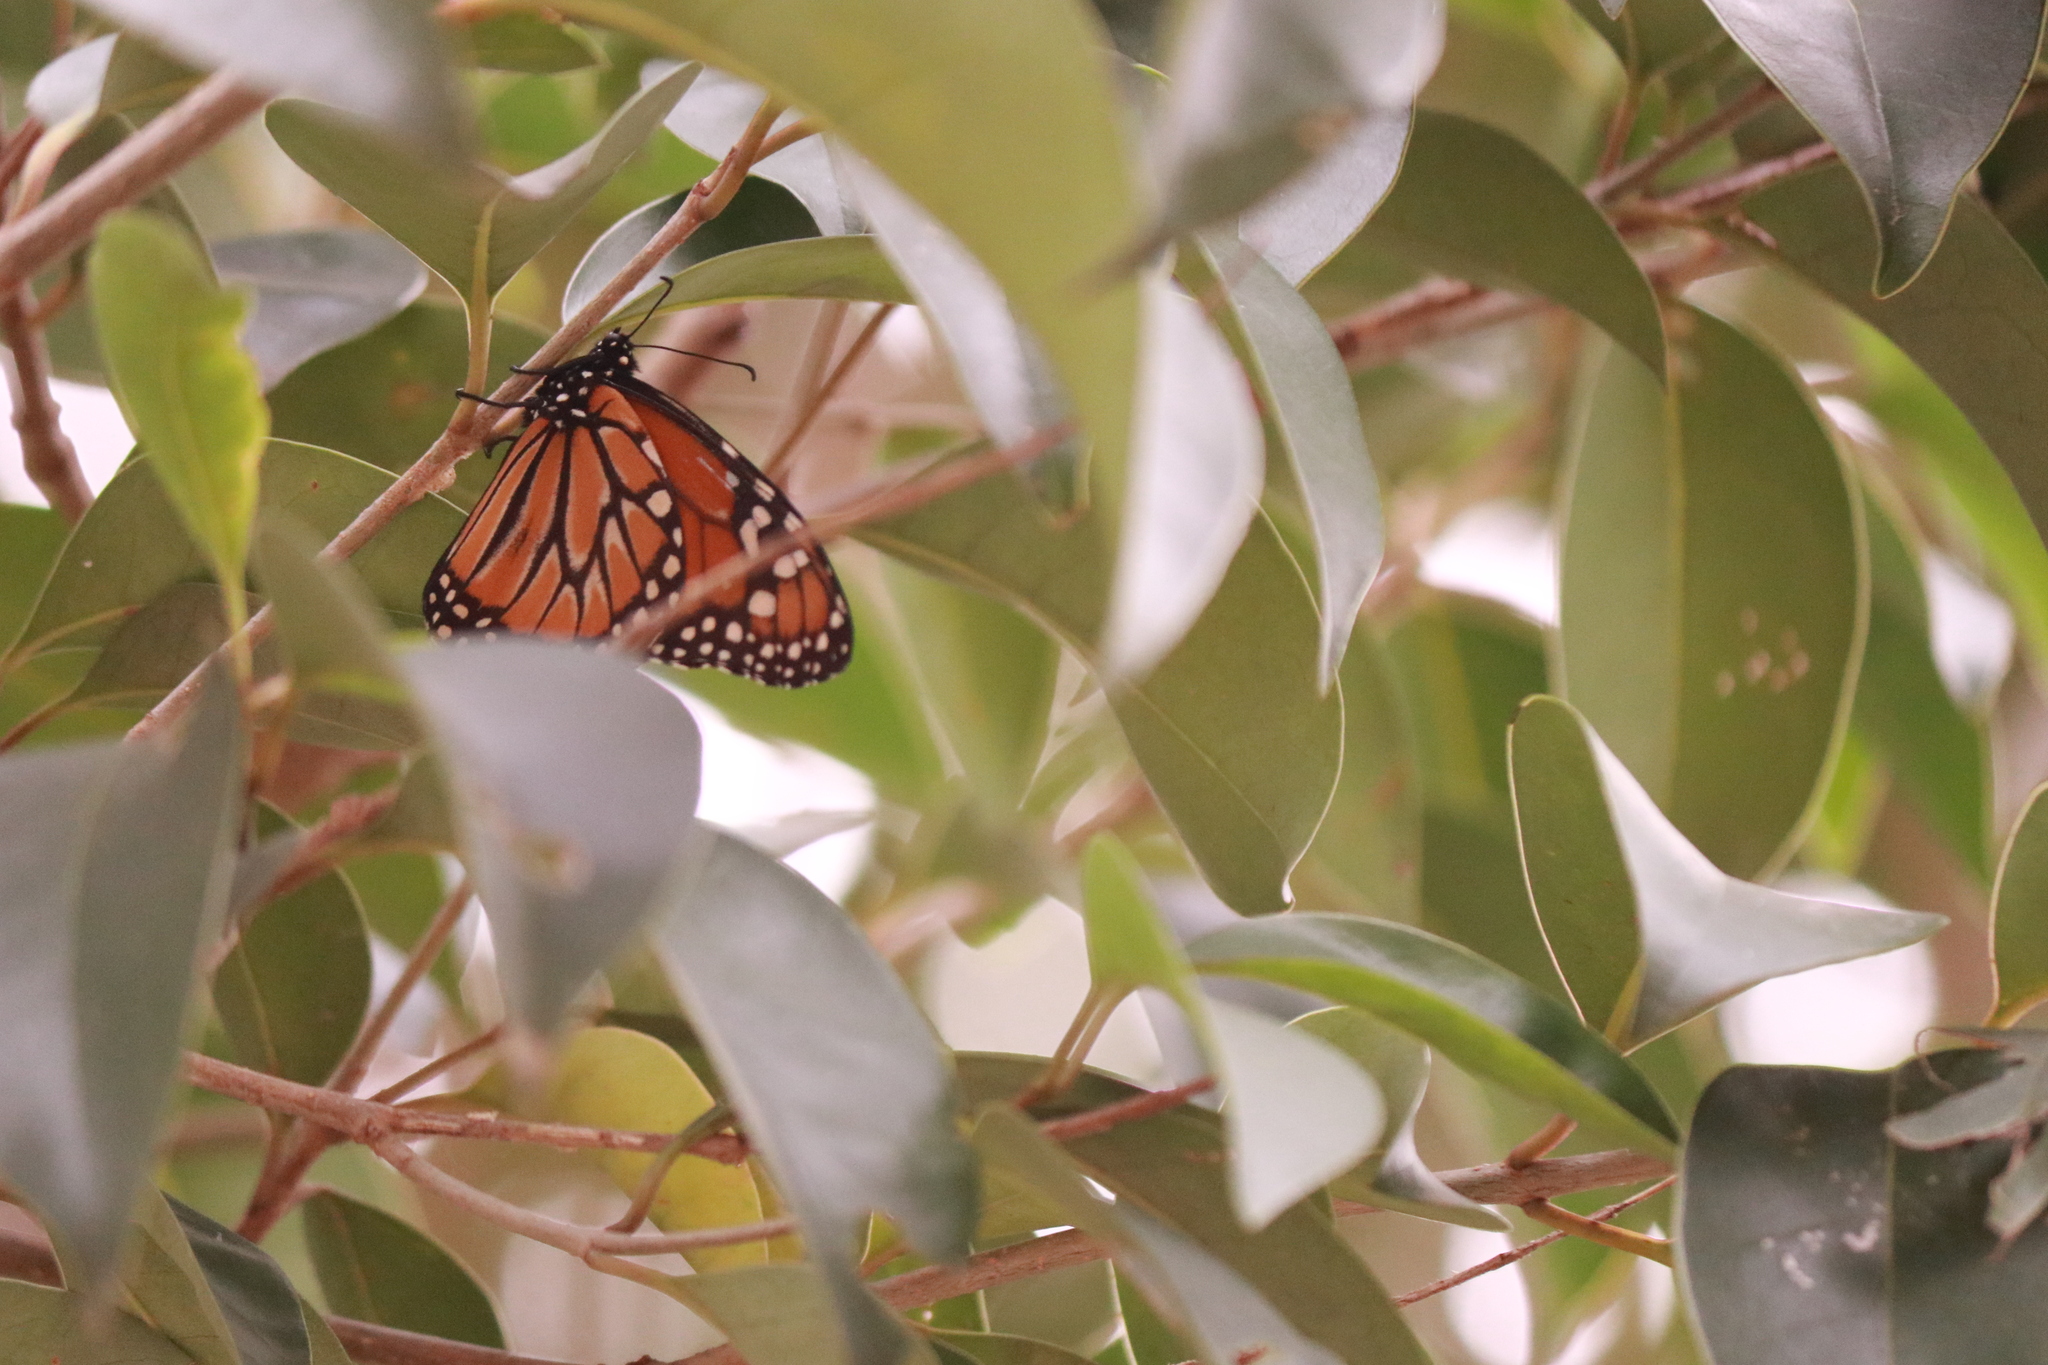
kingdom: Animalia
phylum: Arthropoda
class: Insecta
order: Lepidoptera
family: Nymphalidae
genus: Danaus
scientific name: Danaus erippus
